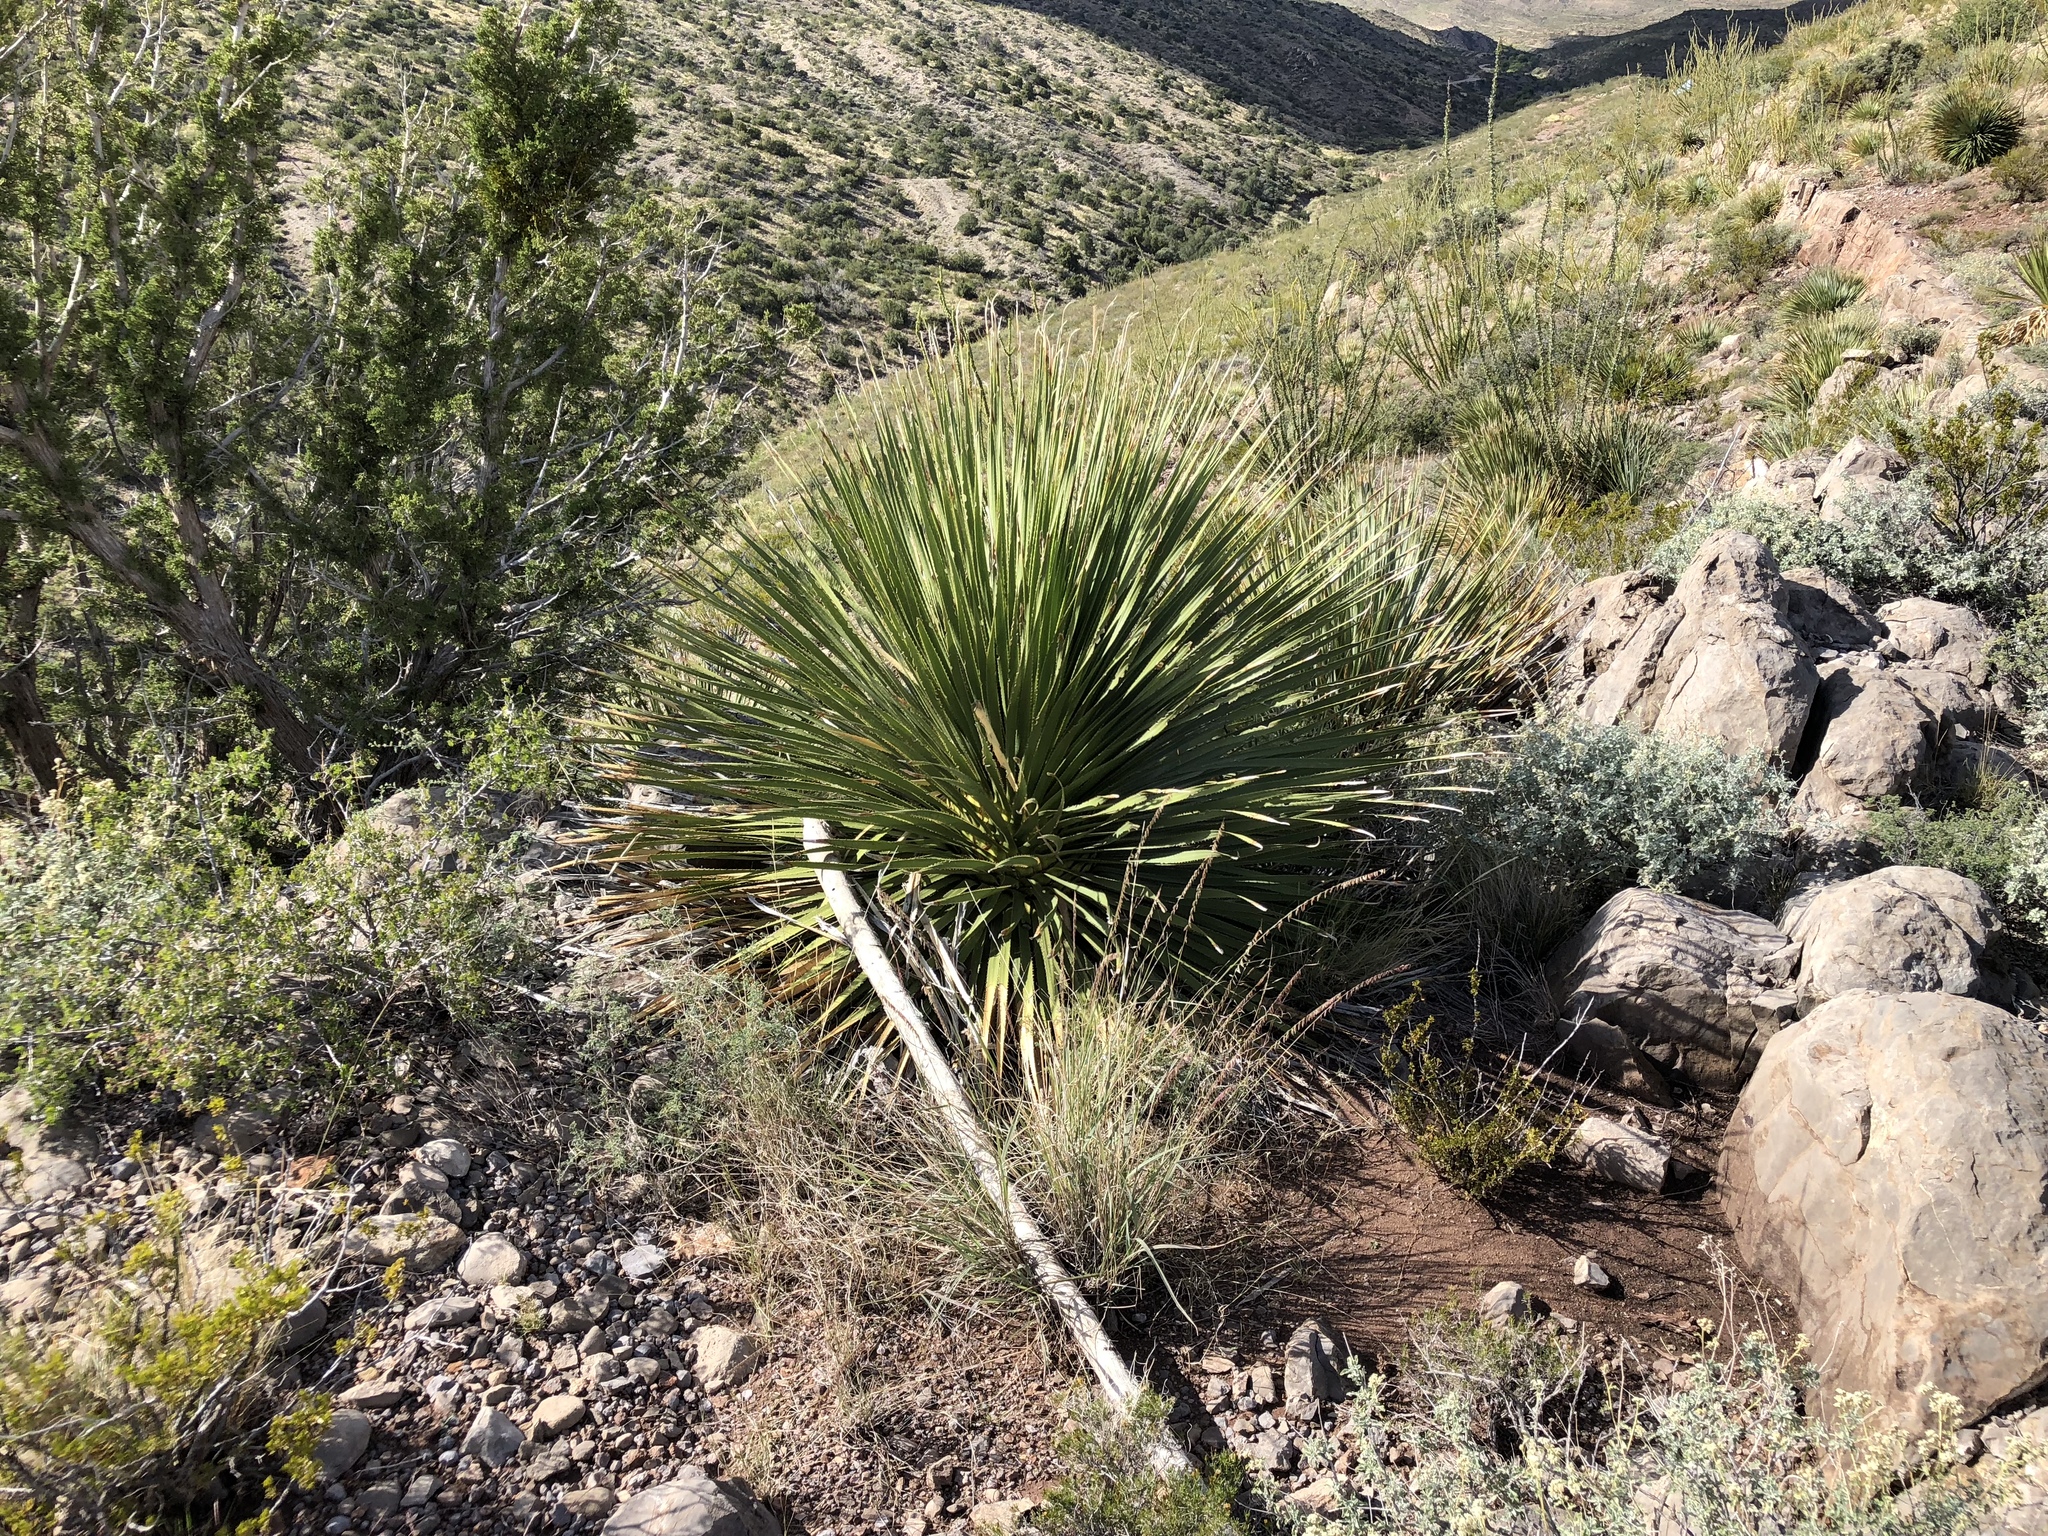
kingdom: Plantae
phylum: Tracheophyta
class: Liliopsida
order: Asparagales
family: Asparagaceae
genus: Dasylirion
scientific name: Dasylirion wheeleri
